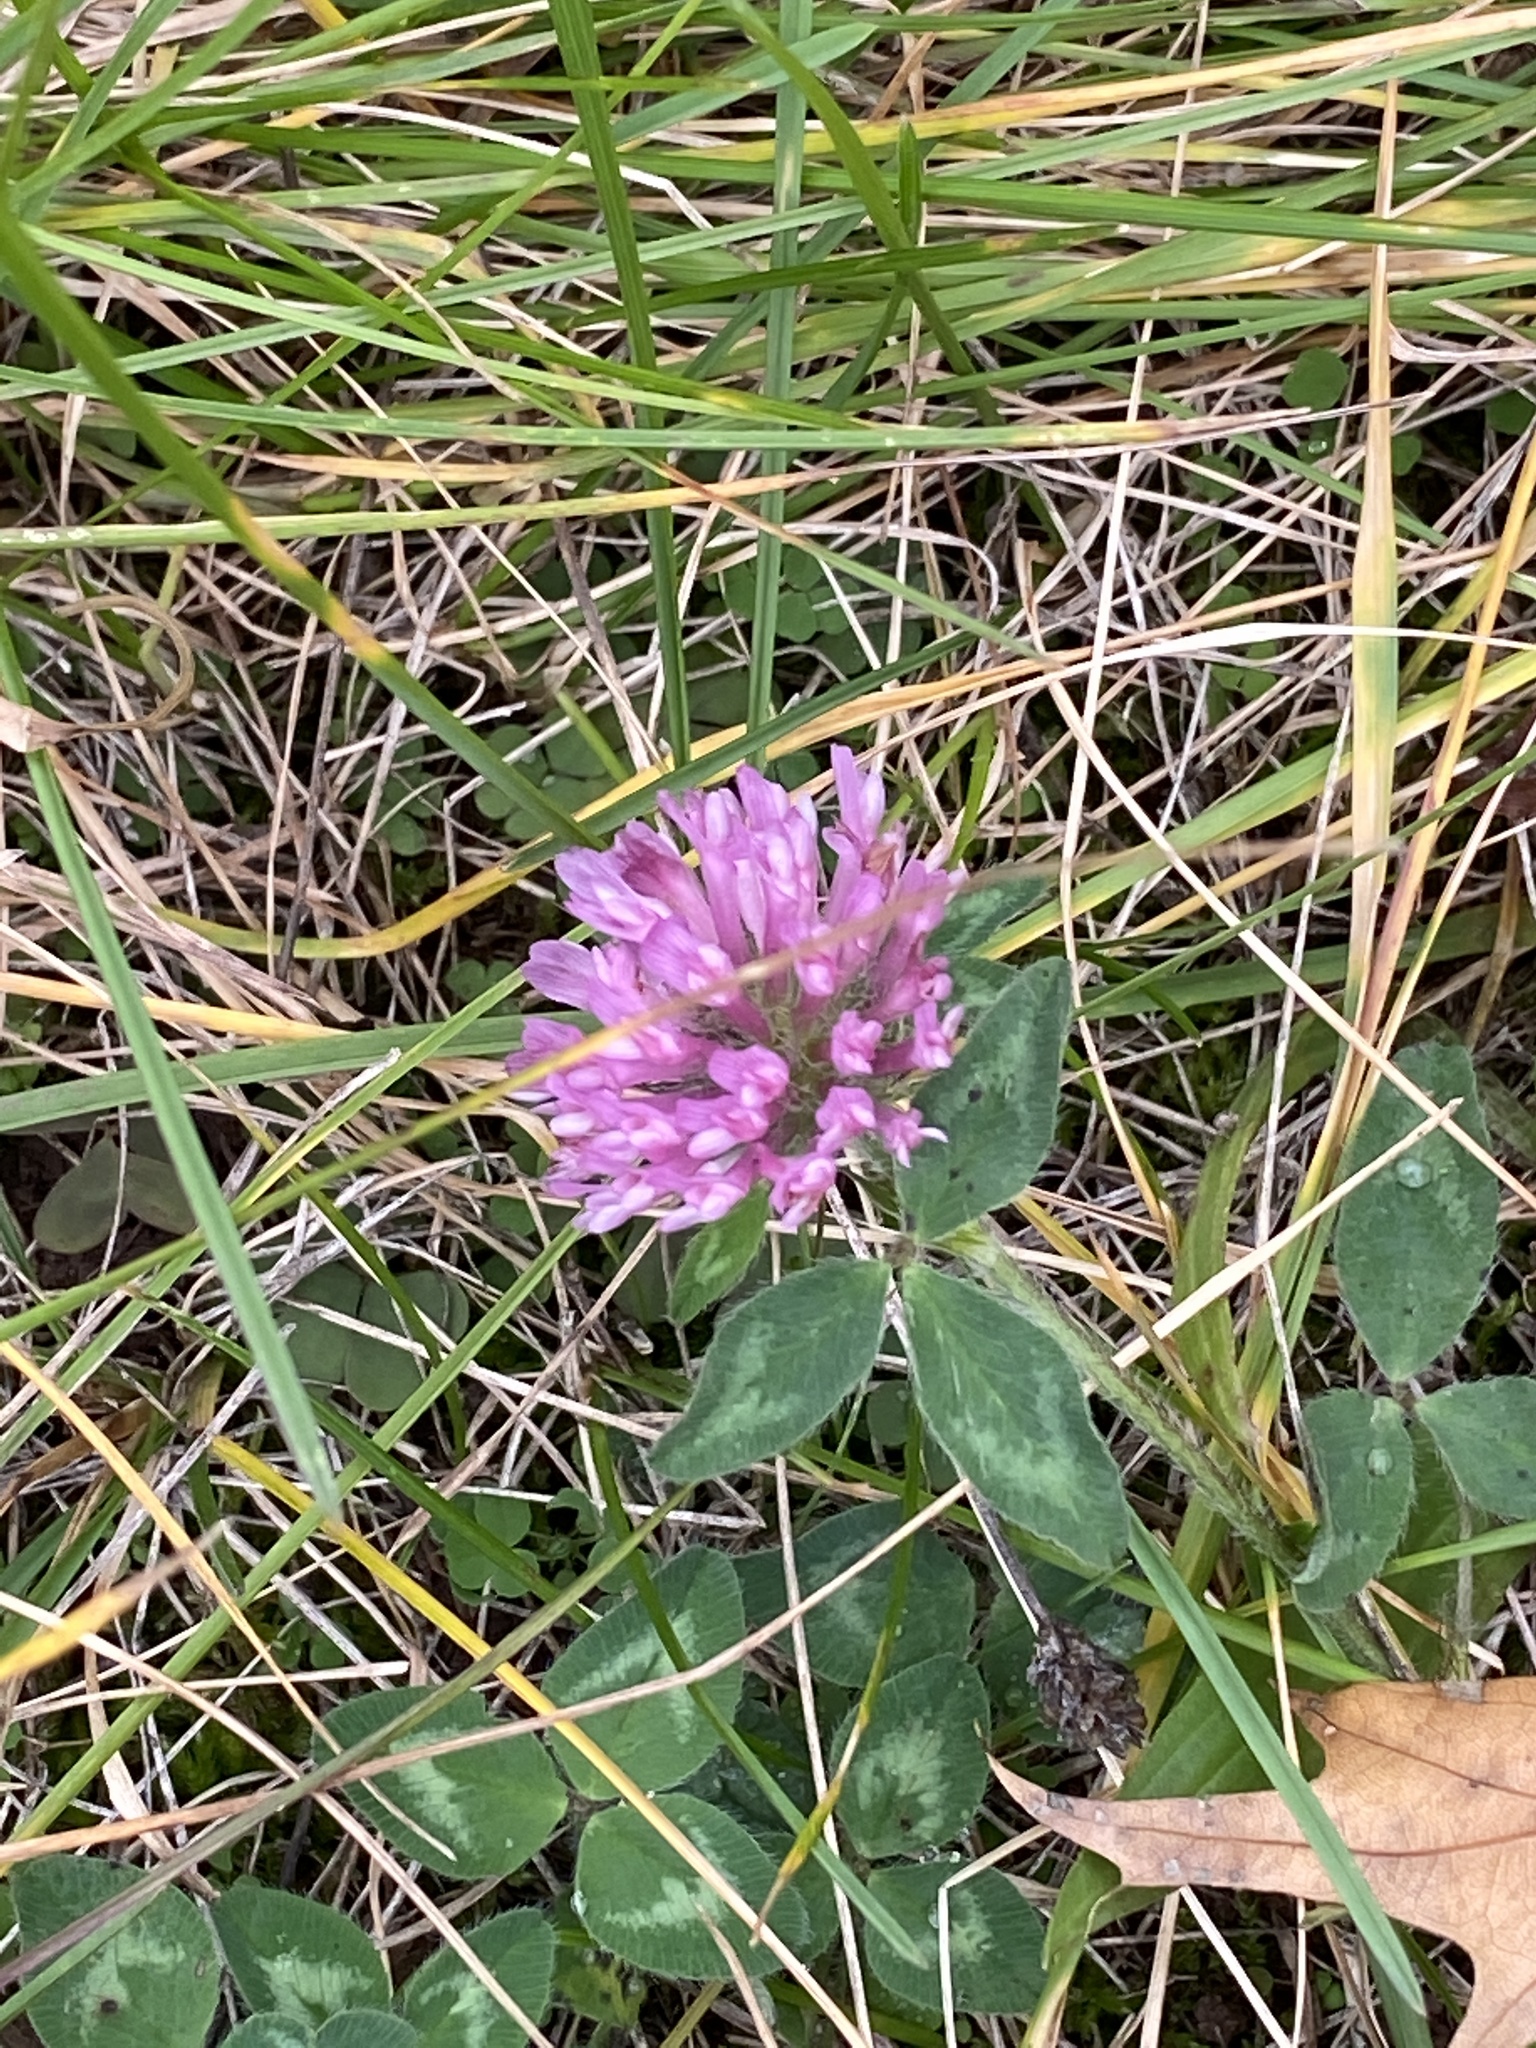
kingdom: Plantae
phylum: Tracheophyta
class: Magnoliopsida
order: Fabales
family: Fabaceae
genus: Trifolium
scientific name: Trifolium pratense
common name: Red clover
